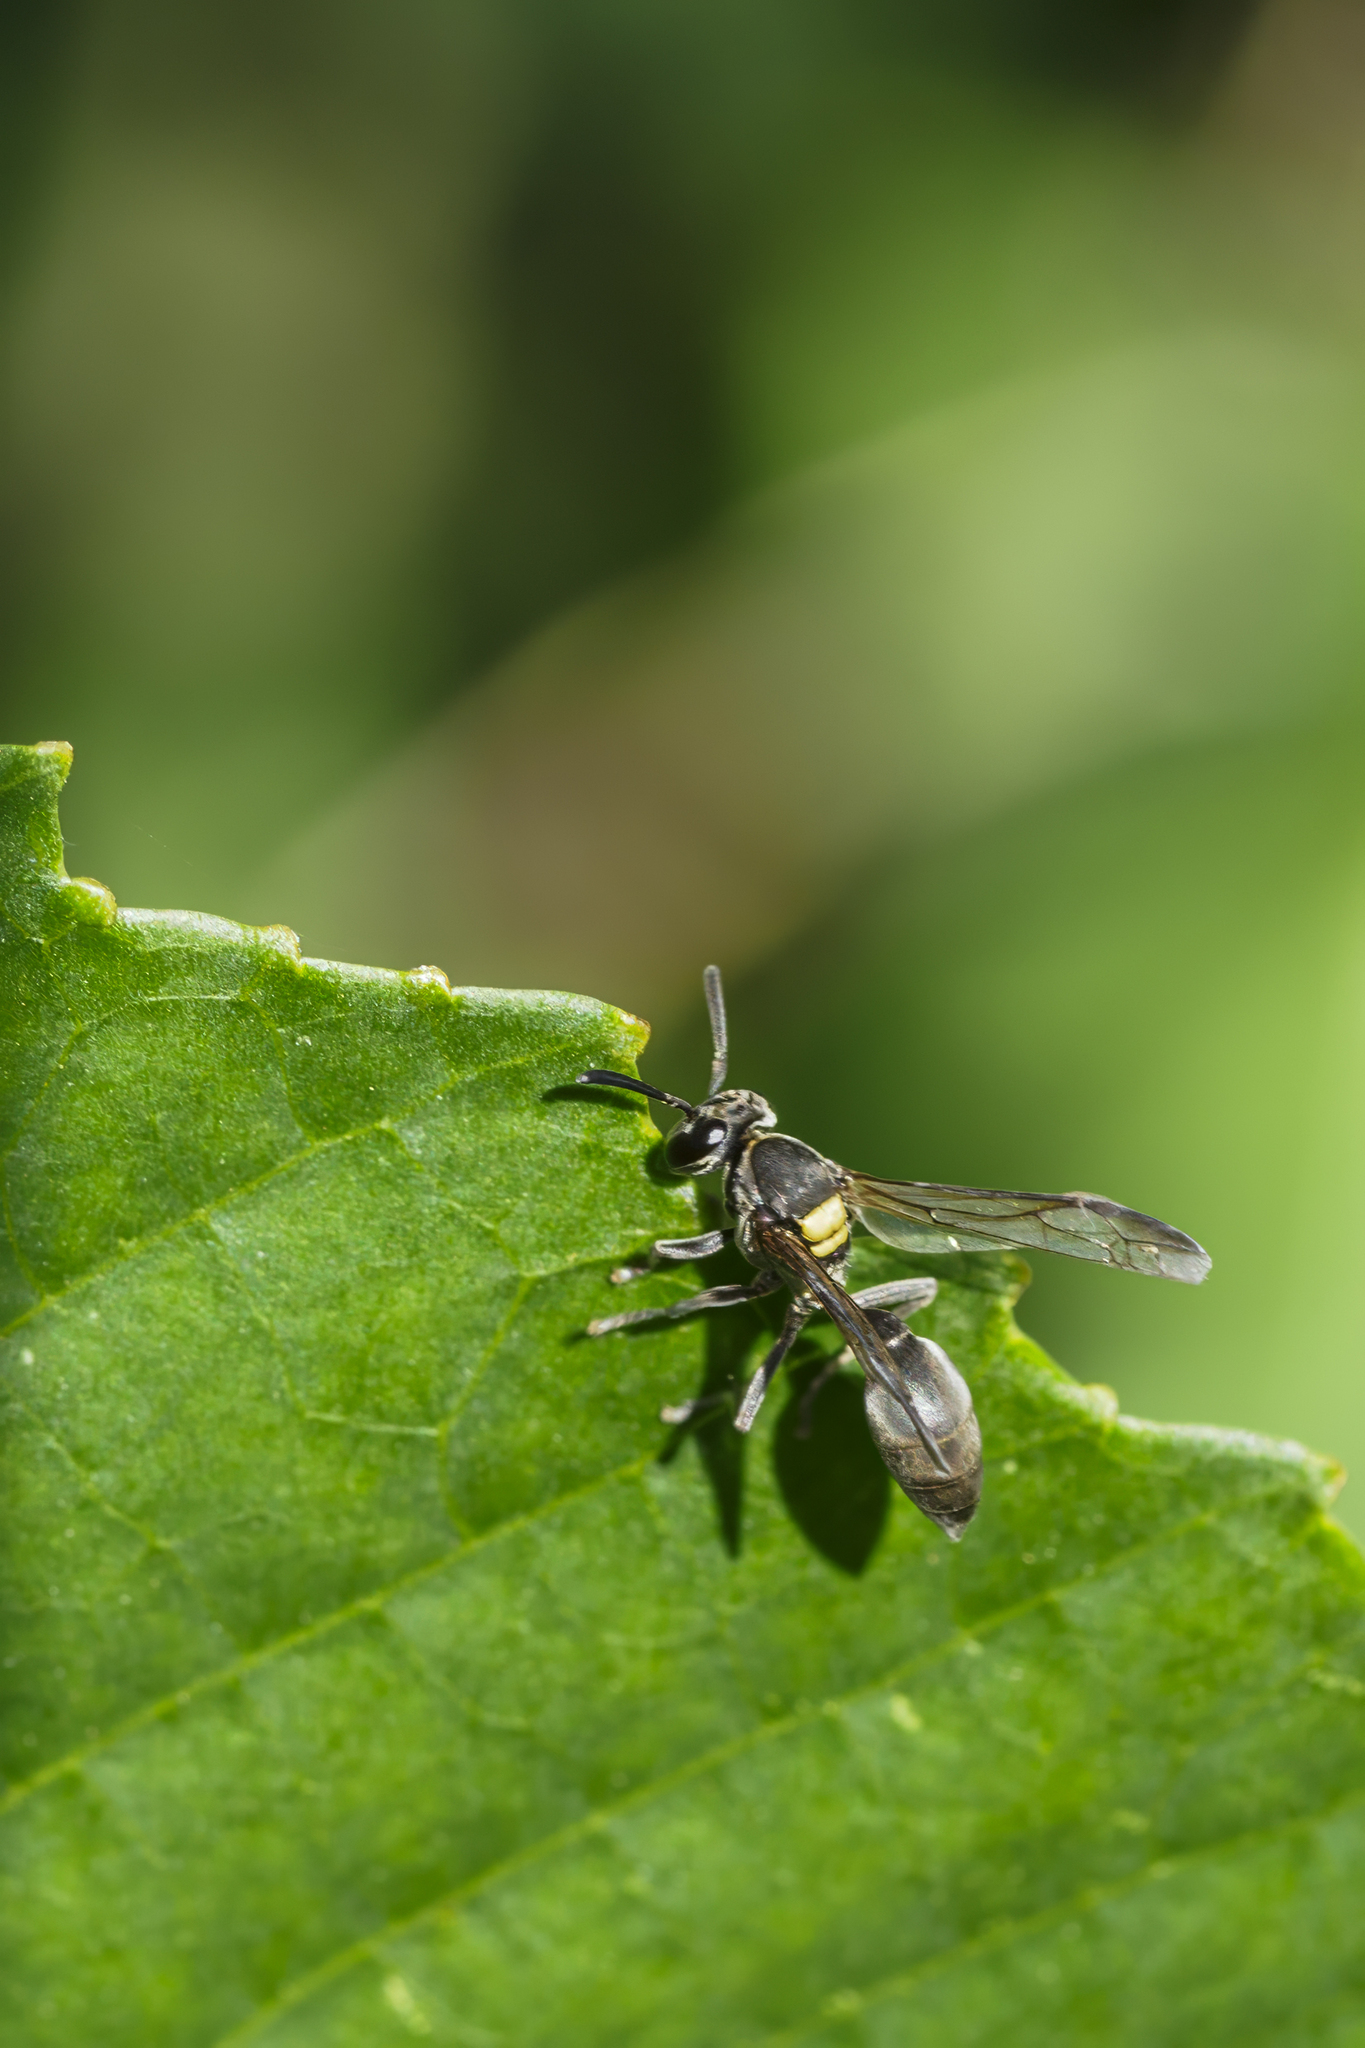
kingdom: Animalia
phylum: Arthropoda
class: Insecta
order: Hymenoptera
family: Eumenidae
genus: Polybia
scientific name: Polybia scutellaris
